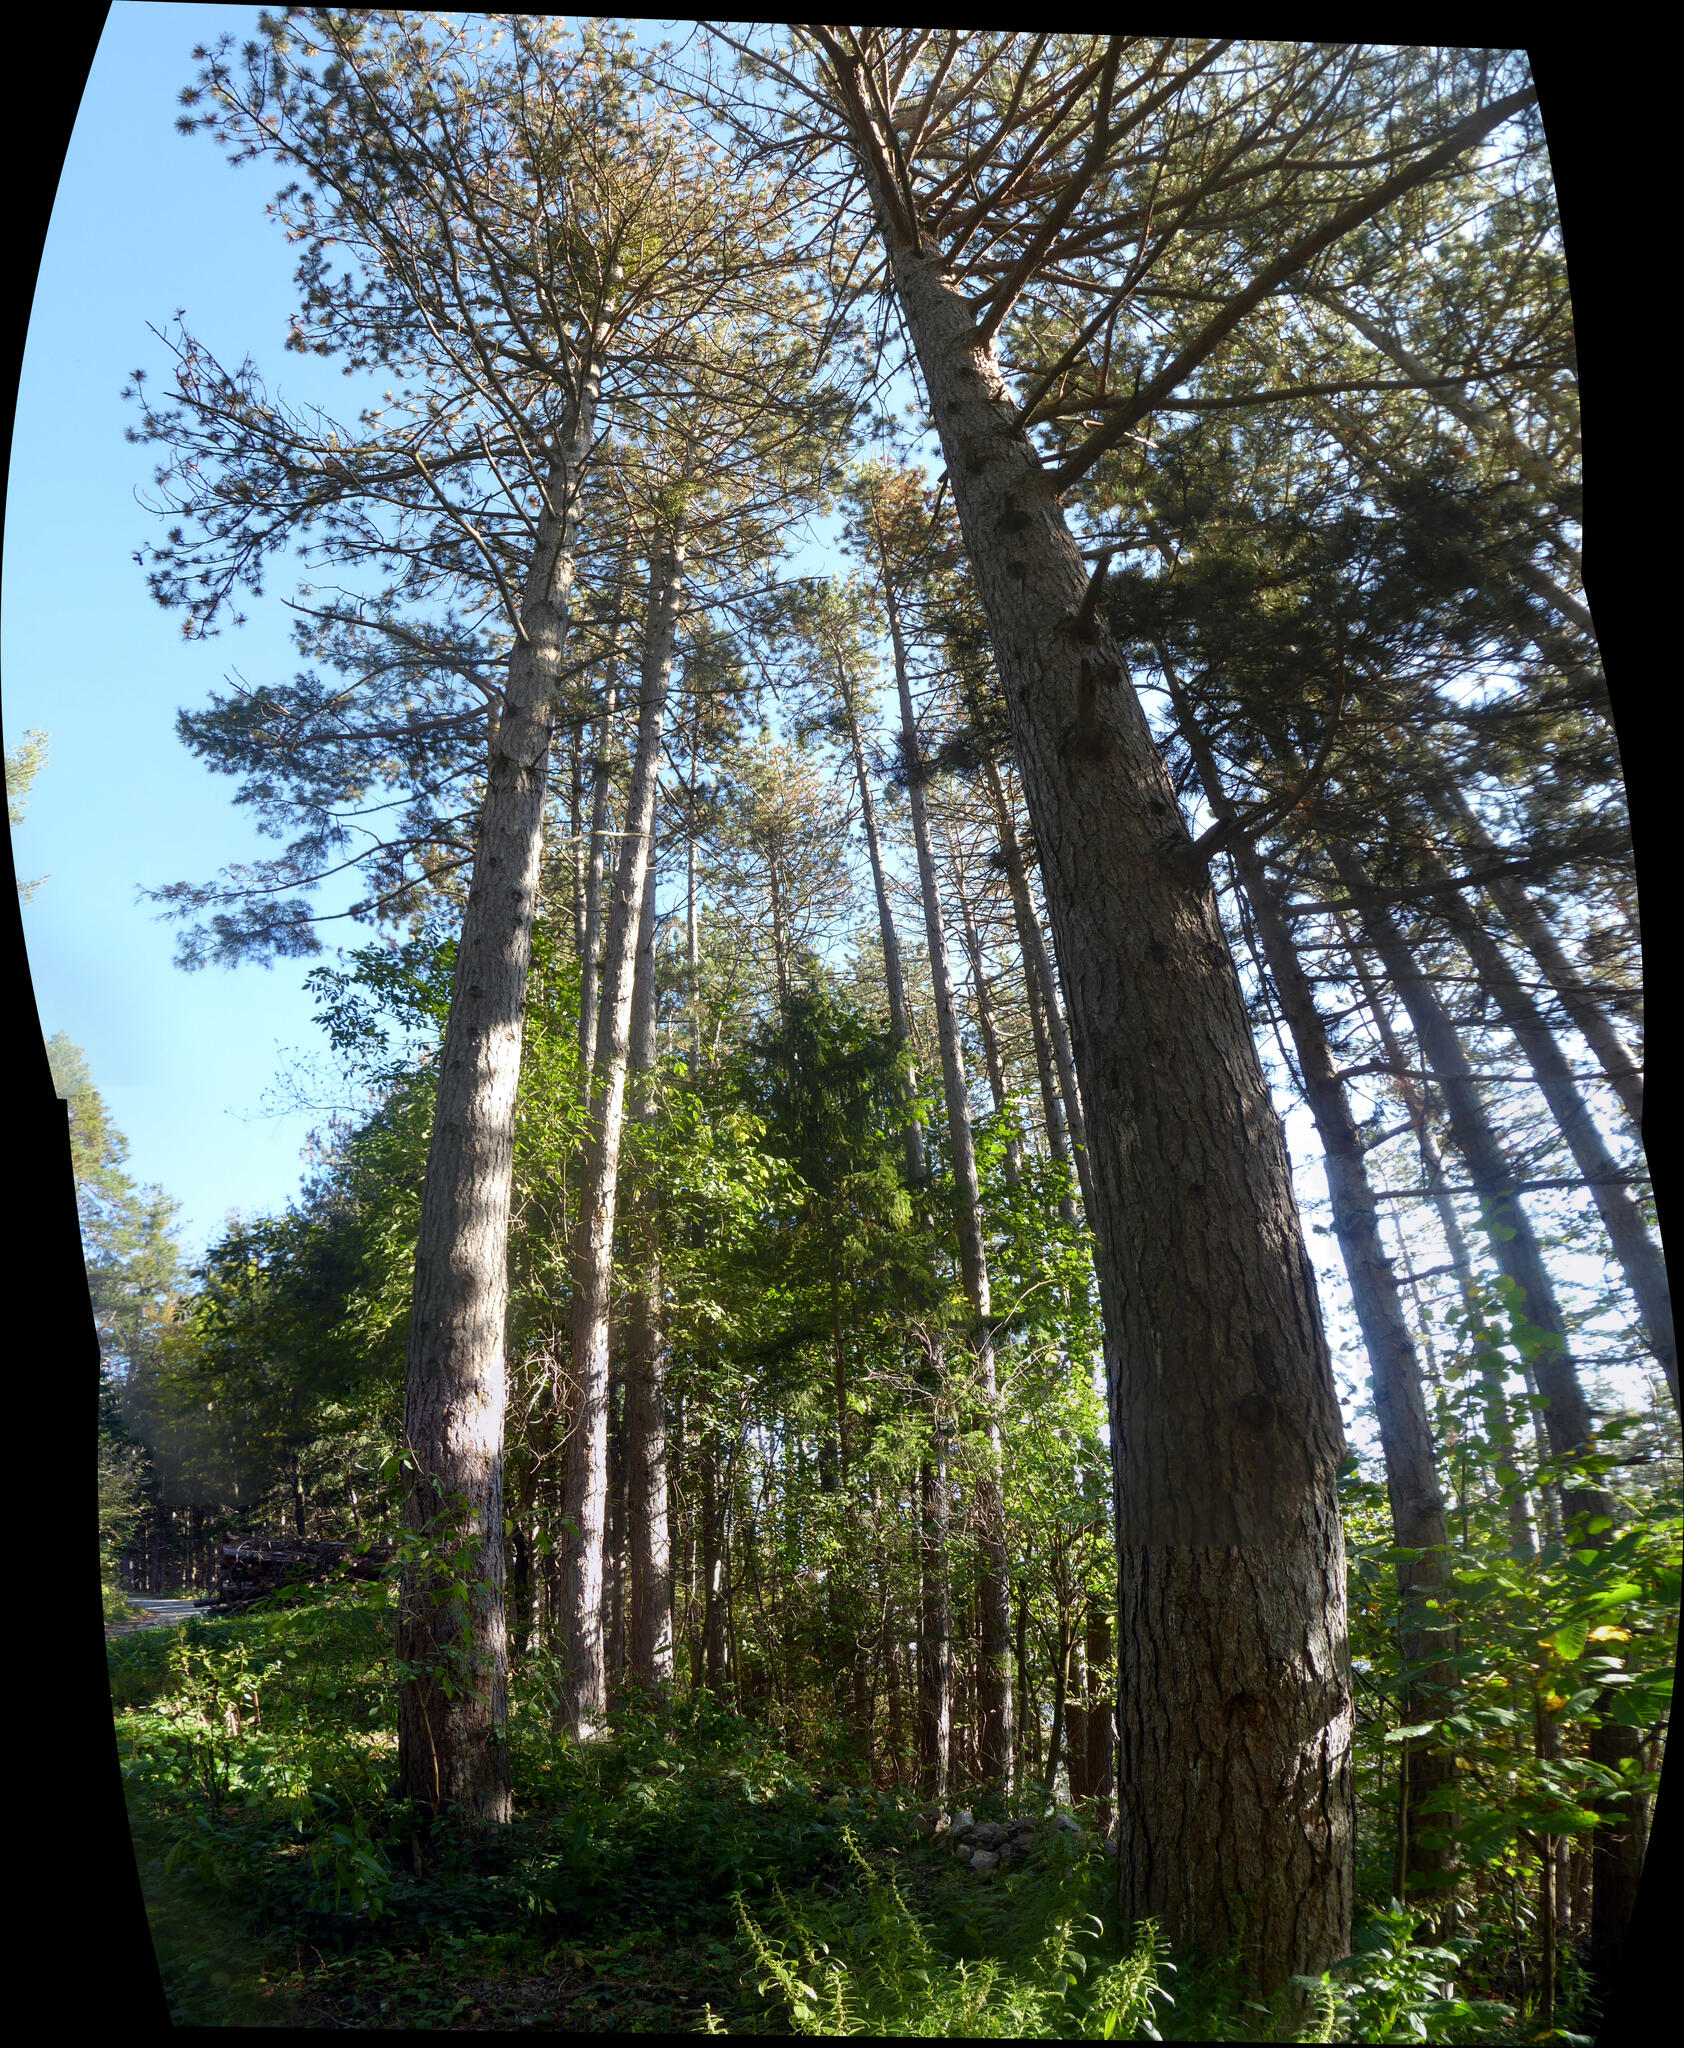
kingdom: Plantae
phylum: Tracheophyta
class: Pinopsida
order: Pinales
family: Pinaceae
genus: Pinus
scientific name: Pinus nigra
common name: Austrian pine
